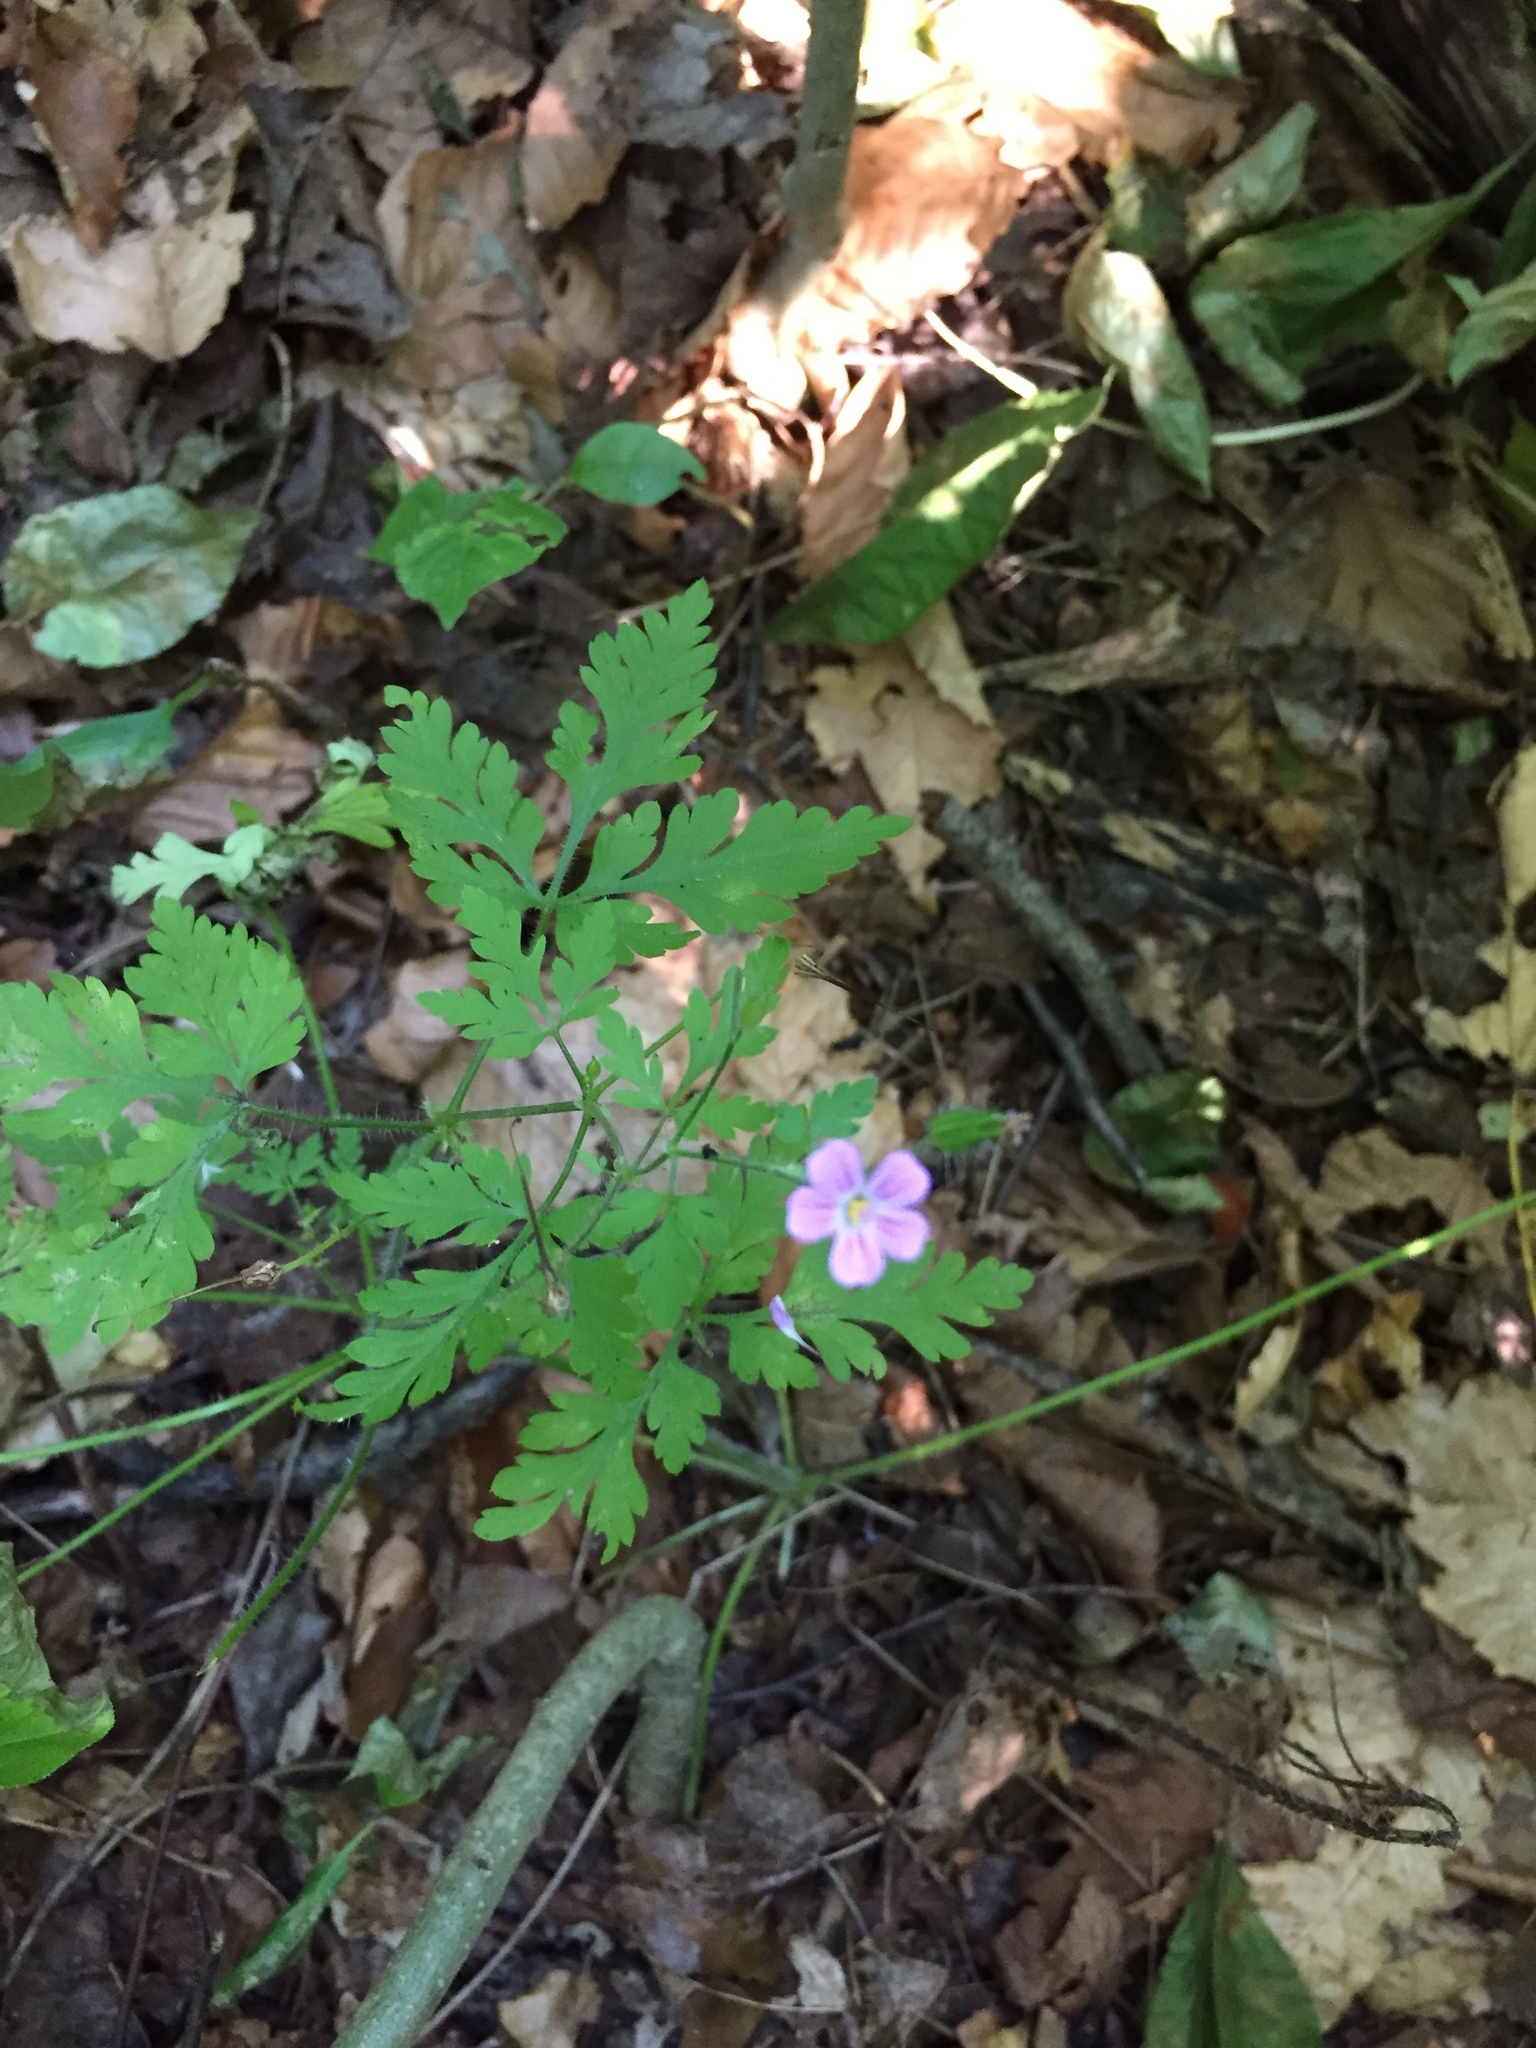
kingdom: Plantae
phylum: Tracheophyta
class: Magnoliopsida
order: Geraniales
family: Geraniaceae
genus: Geranium
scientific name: Geranium robertianum
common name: Herb-robert
